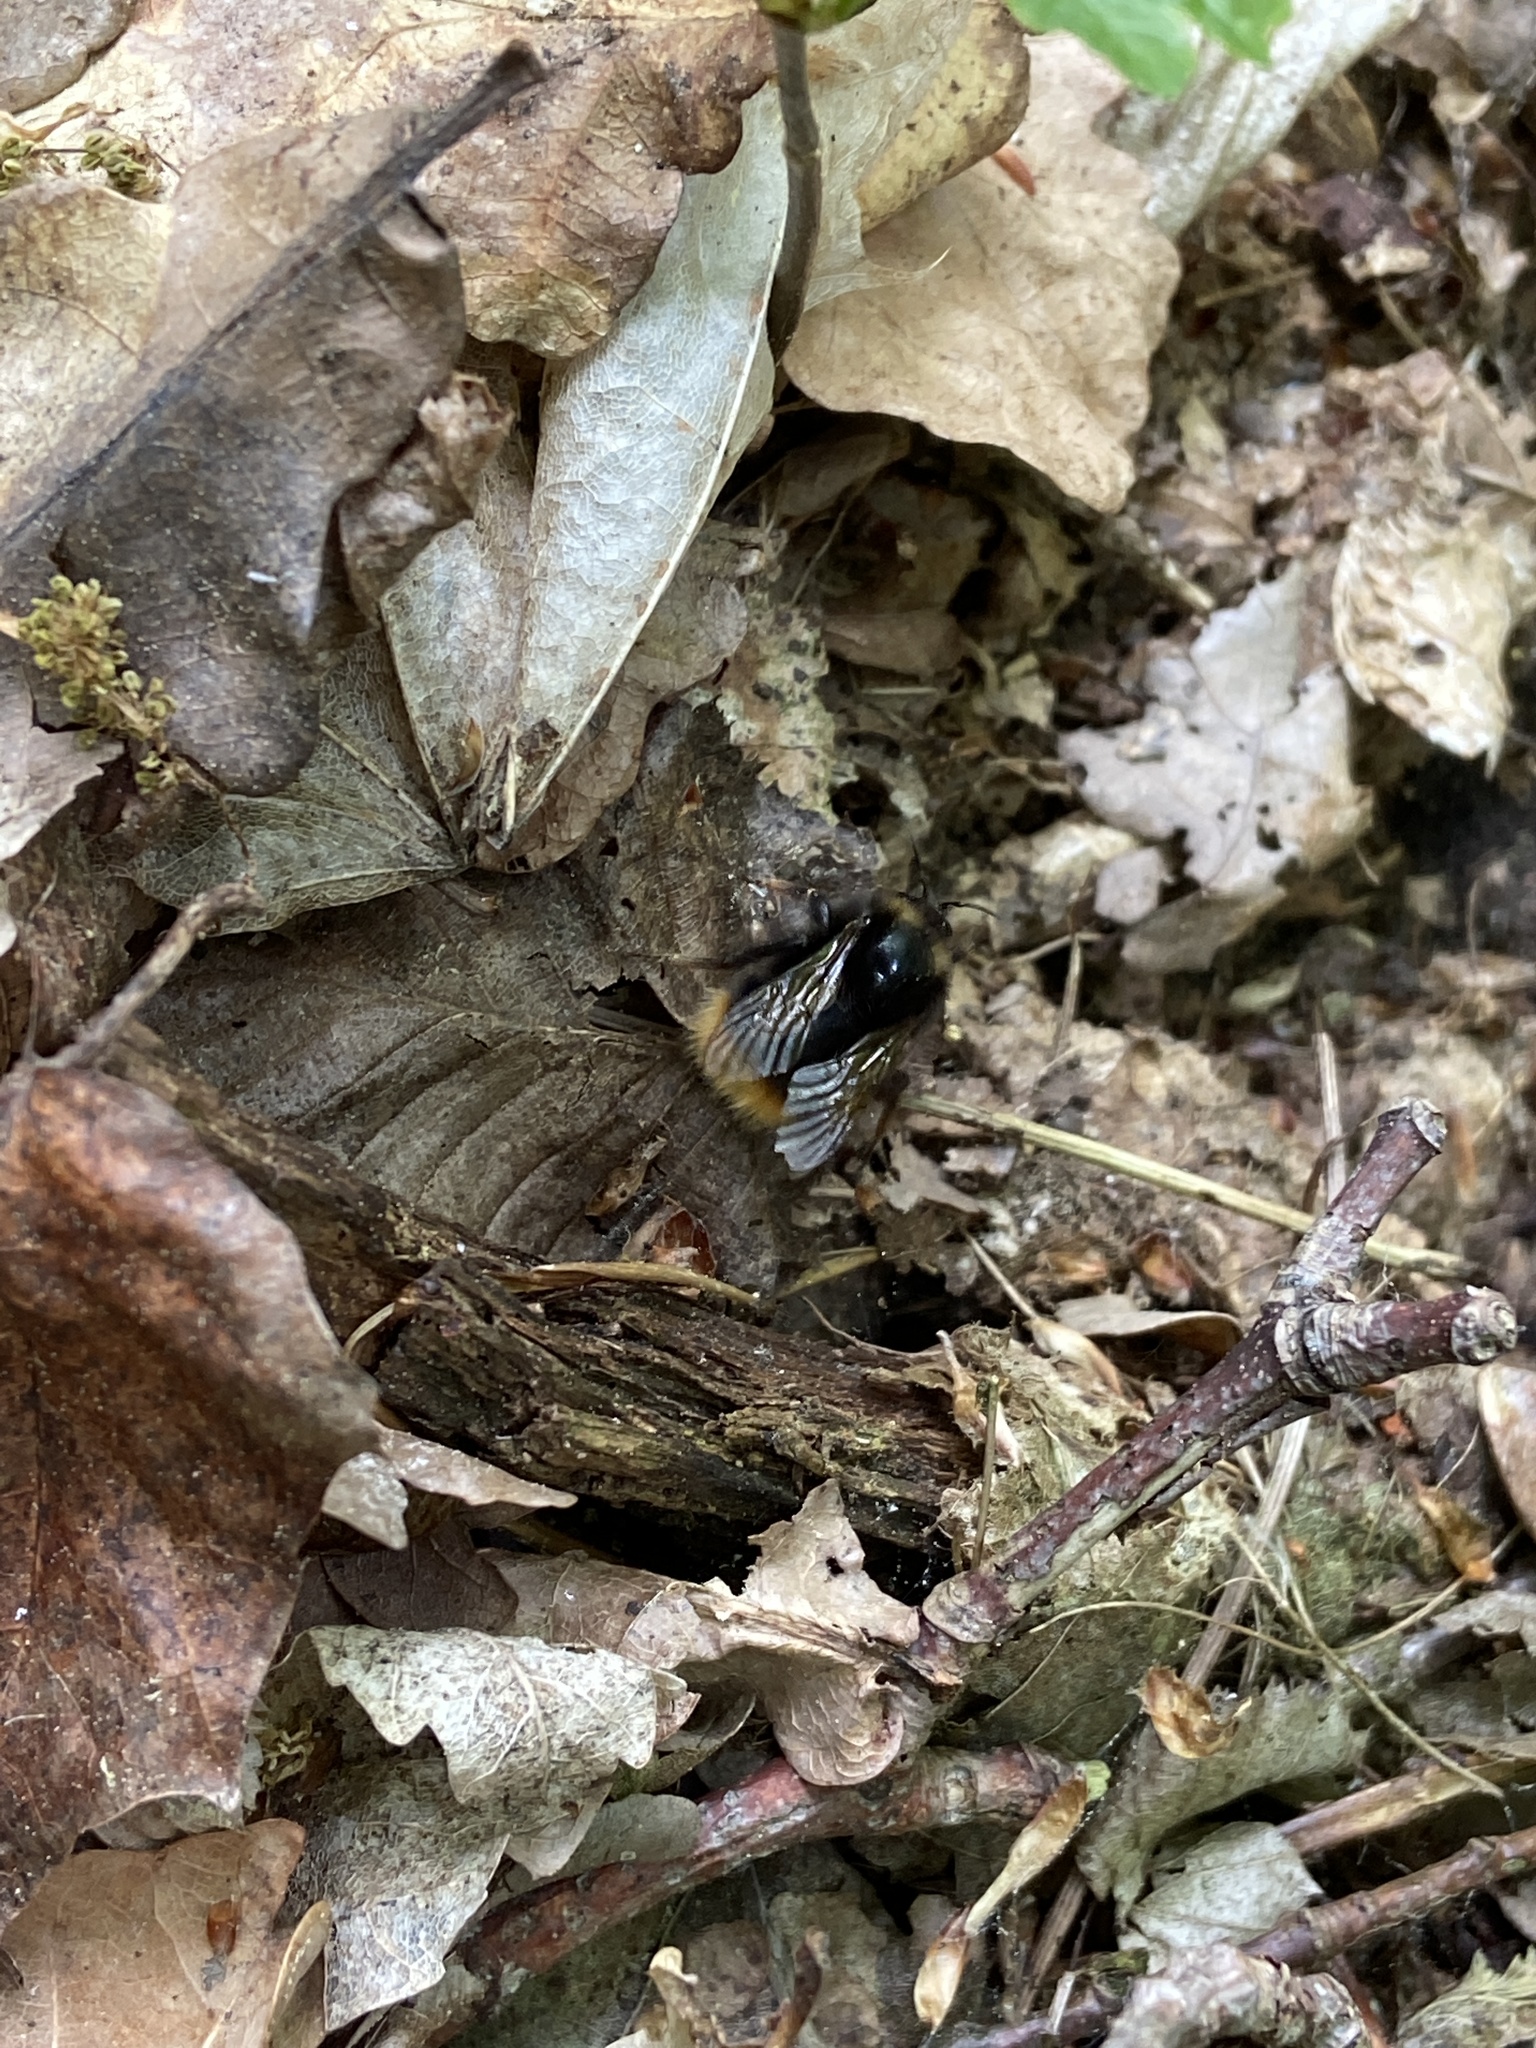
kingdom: Animalia
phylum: Arthropoda
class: Insecta
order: Hymenoptera
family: Apidae
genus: Bombus
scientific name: Bombus pratorum
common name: Early humble-bee
